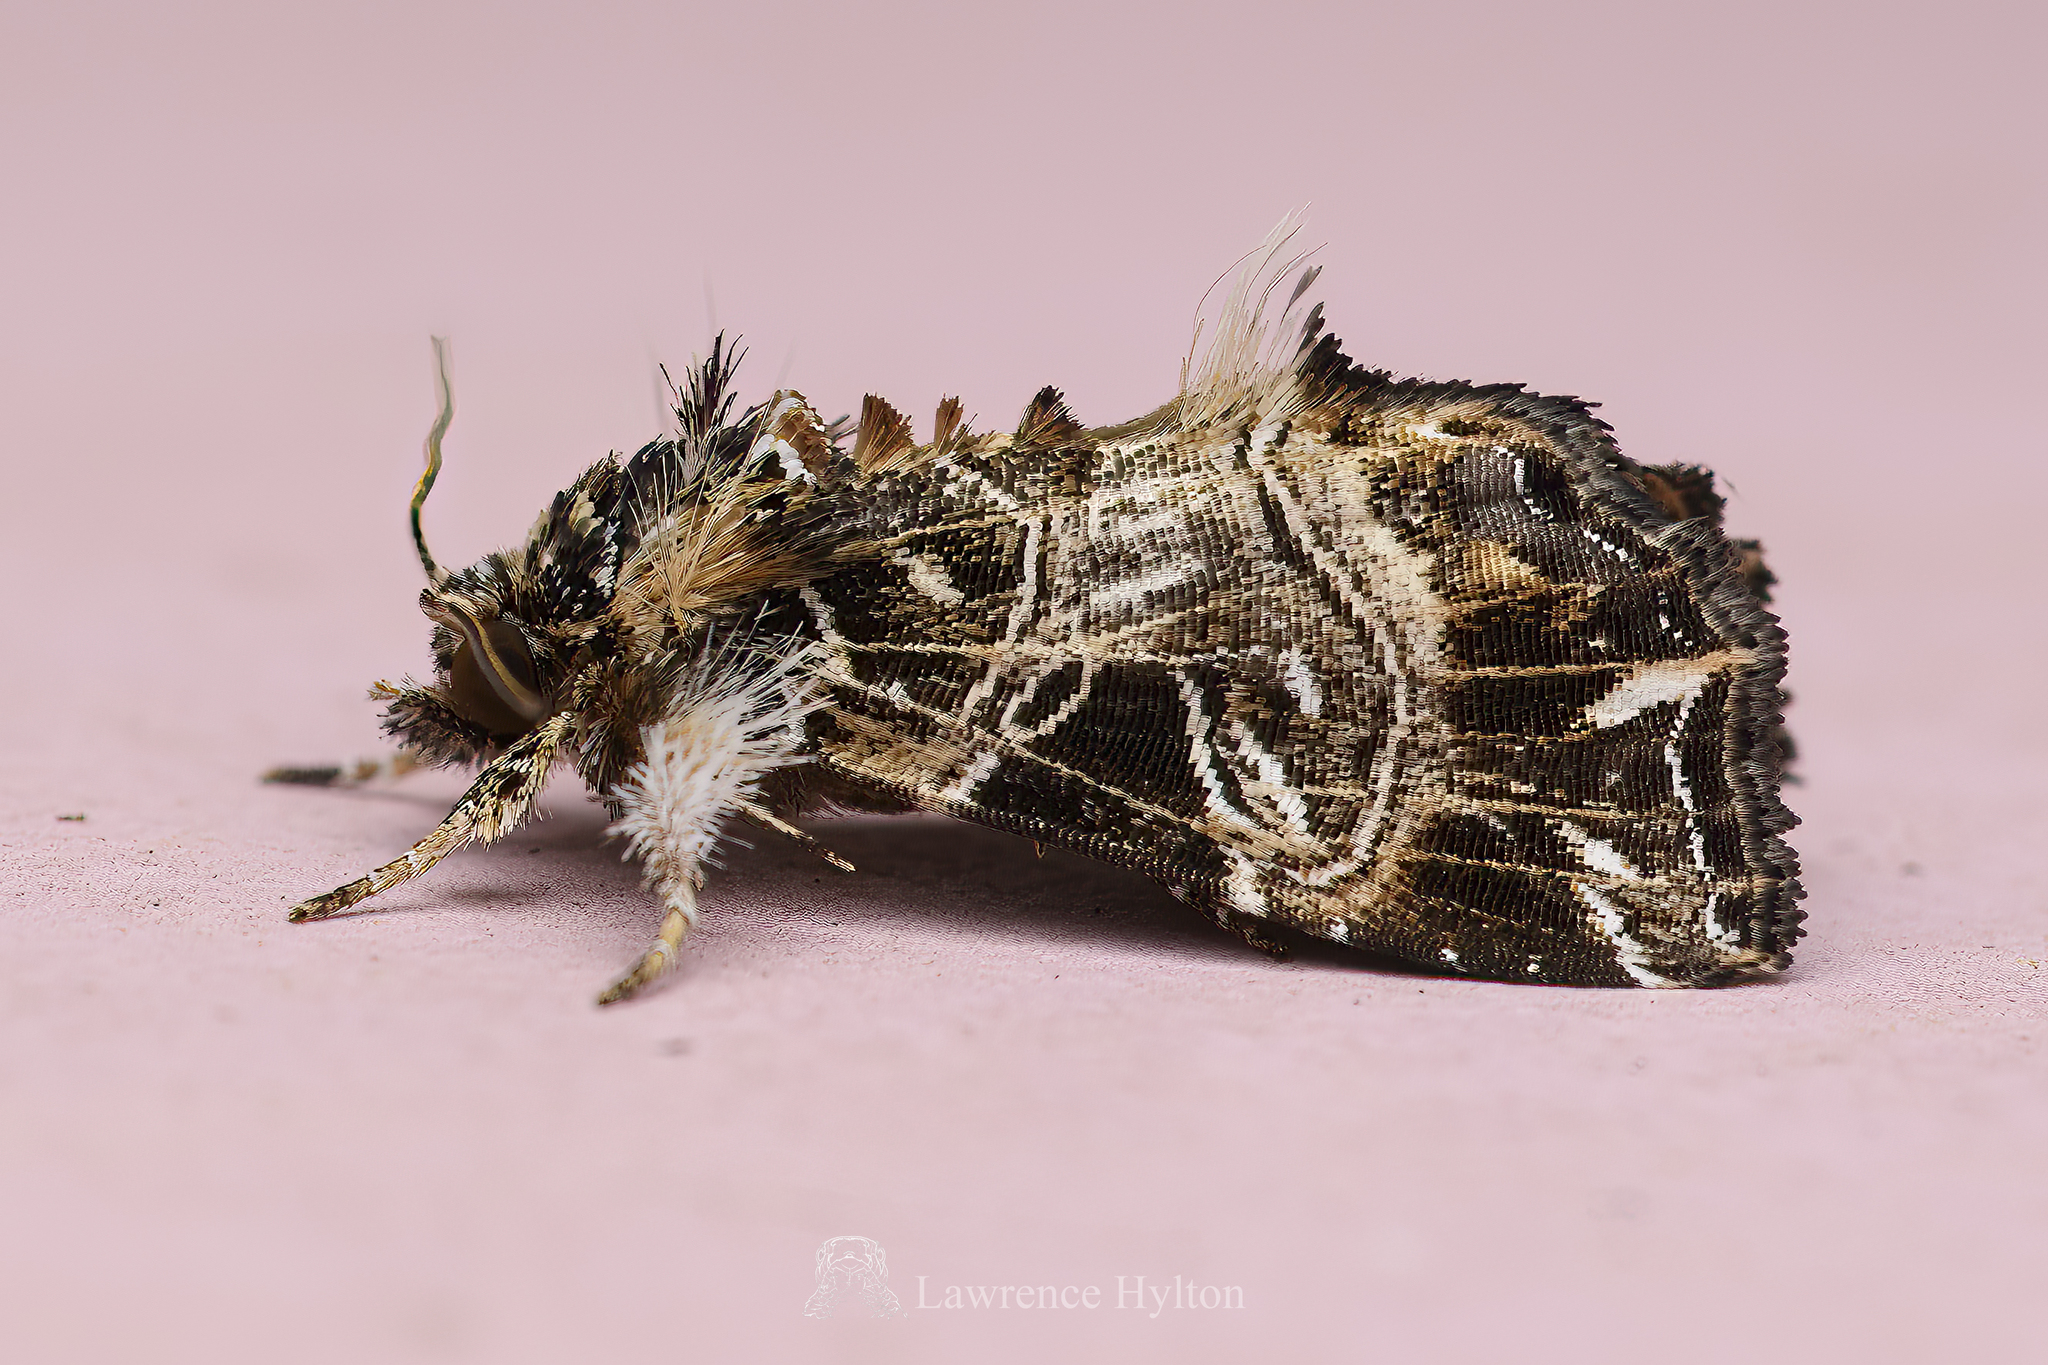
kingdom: Animalia
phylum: Arthropoda
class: Insecta
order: Lepidoptera
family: Noctuidae
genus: Callopistria
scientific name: Callopistria rivularis
